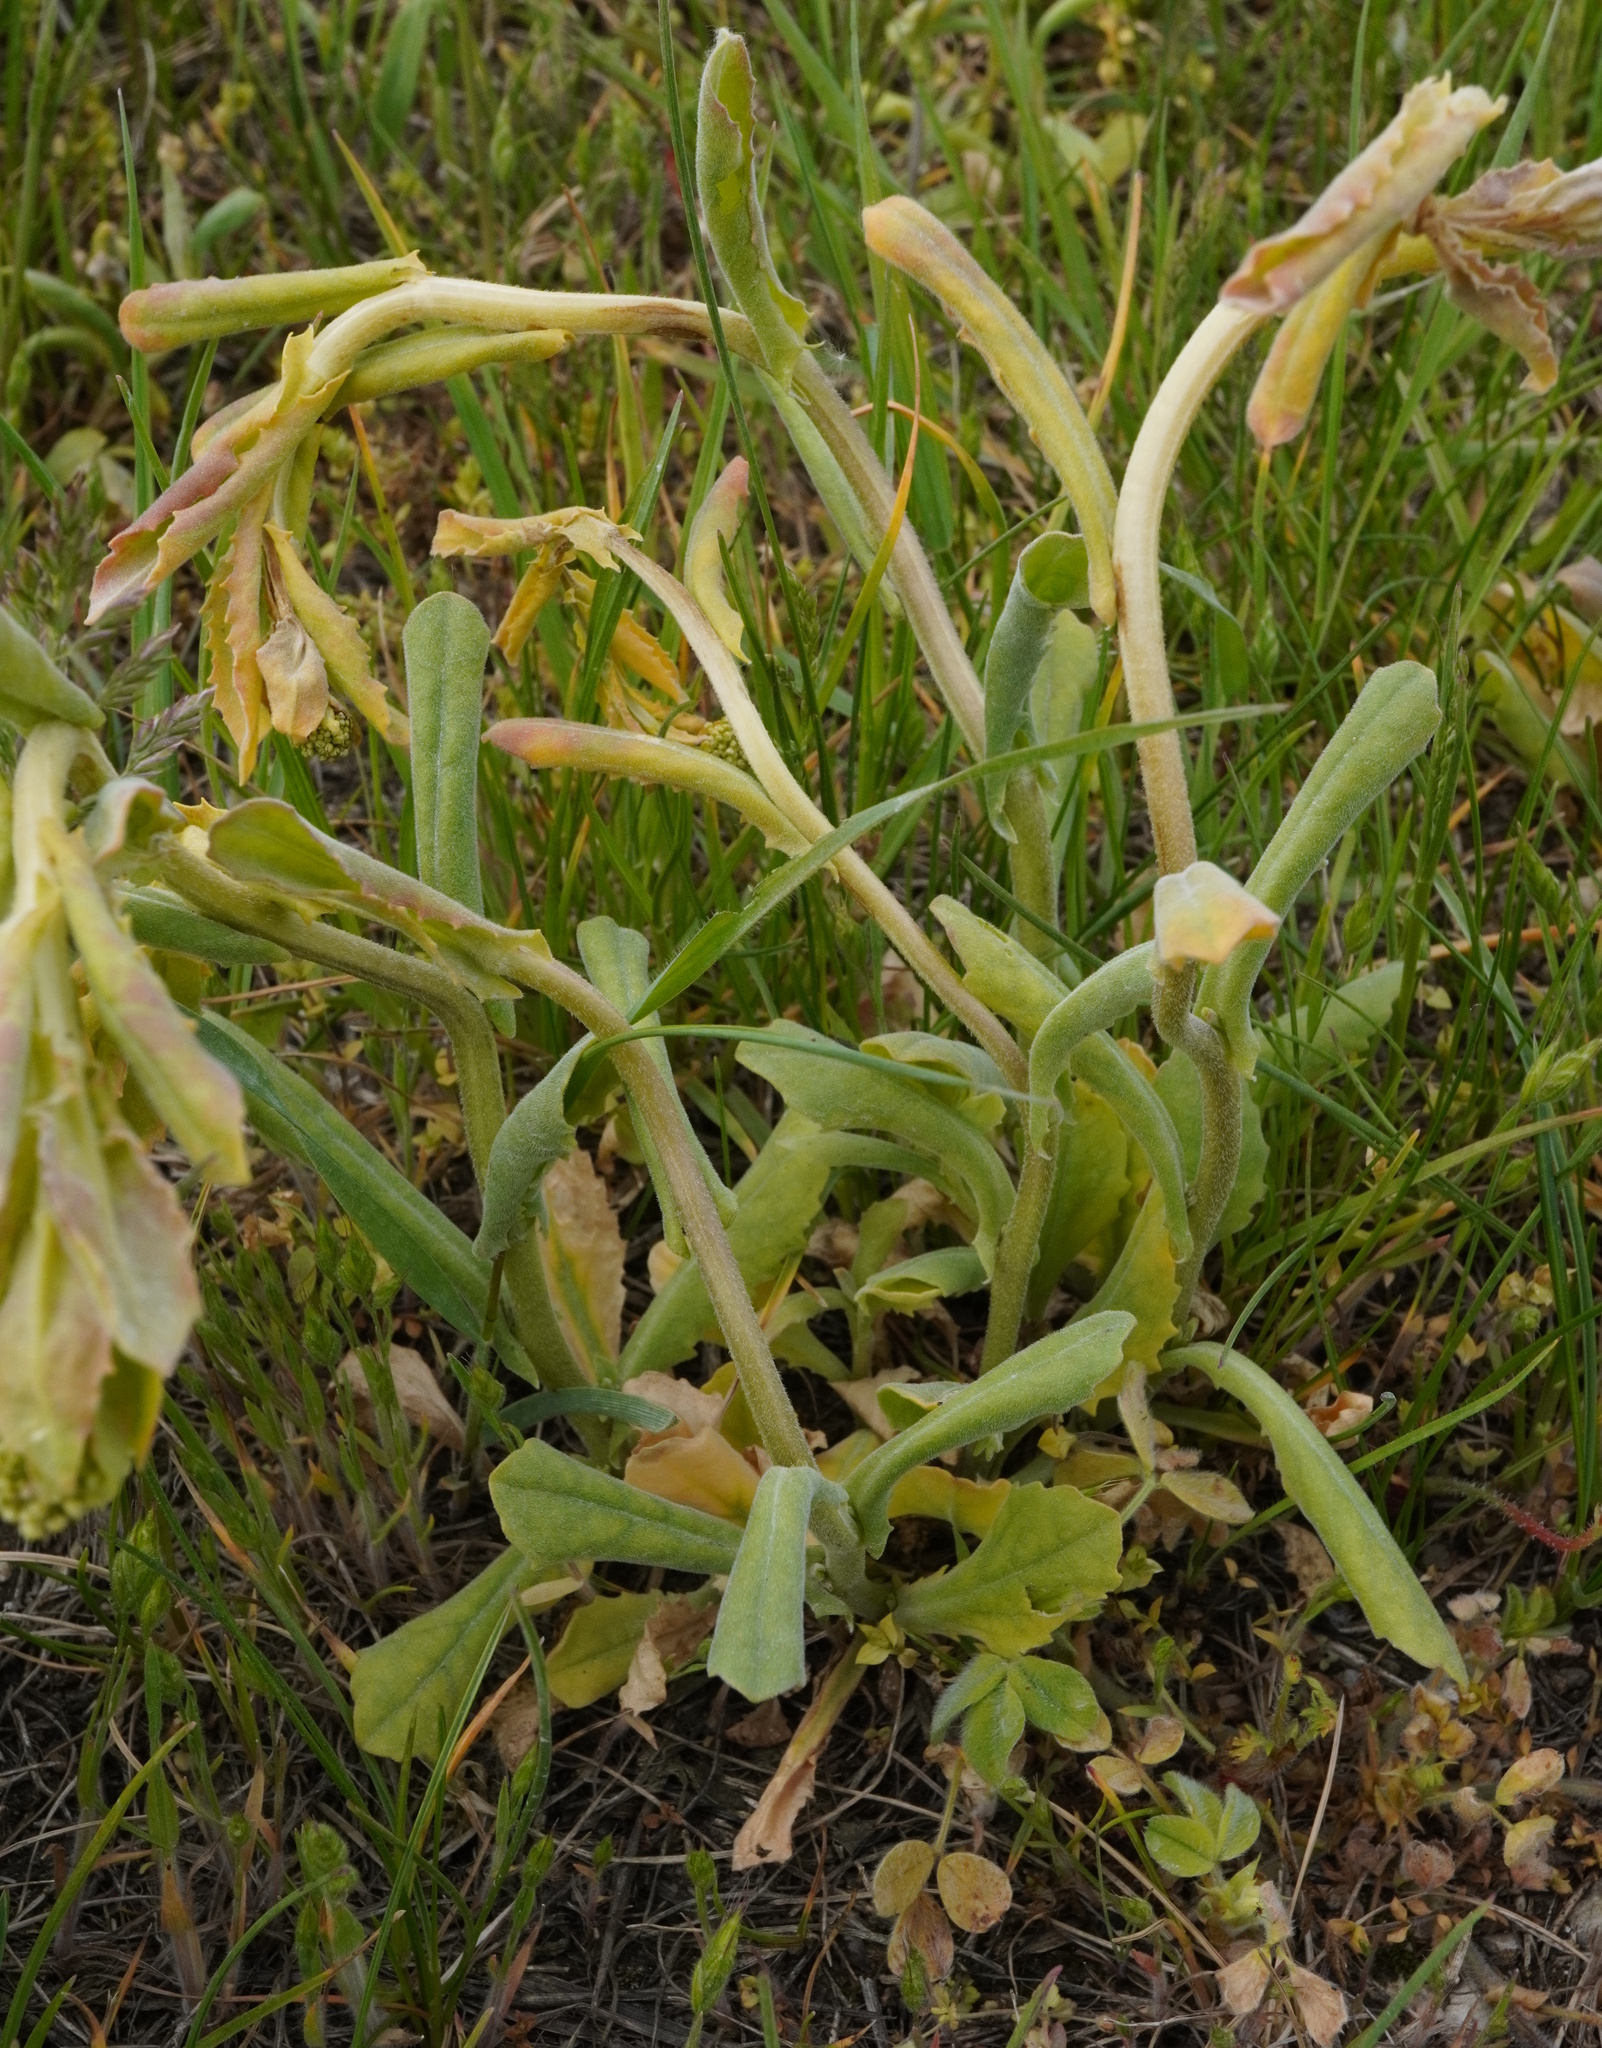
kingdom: Plantae
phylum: Tracheophyta
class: Magnoliopsida
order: Brassicales
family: Brassicaceae
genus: Lepidium
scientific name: Lepidium draba
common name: Hoary cress
